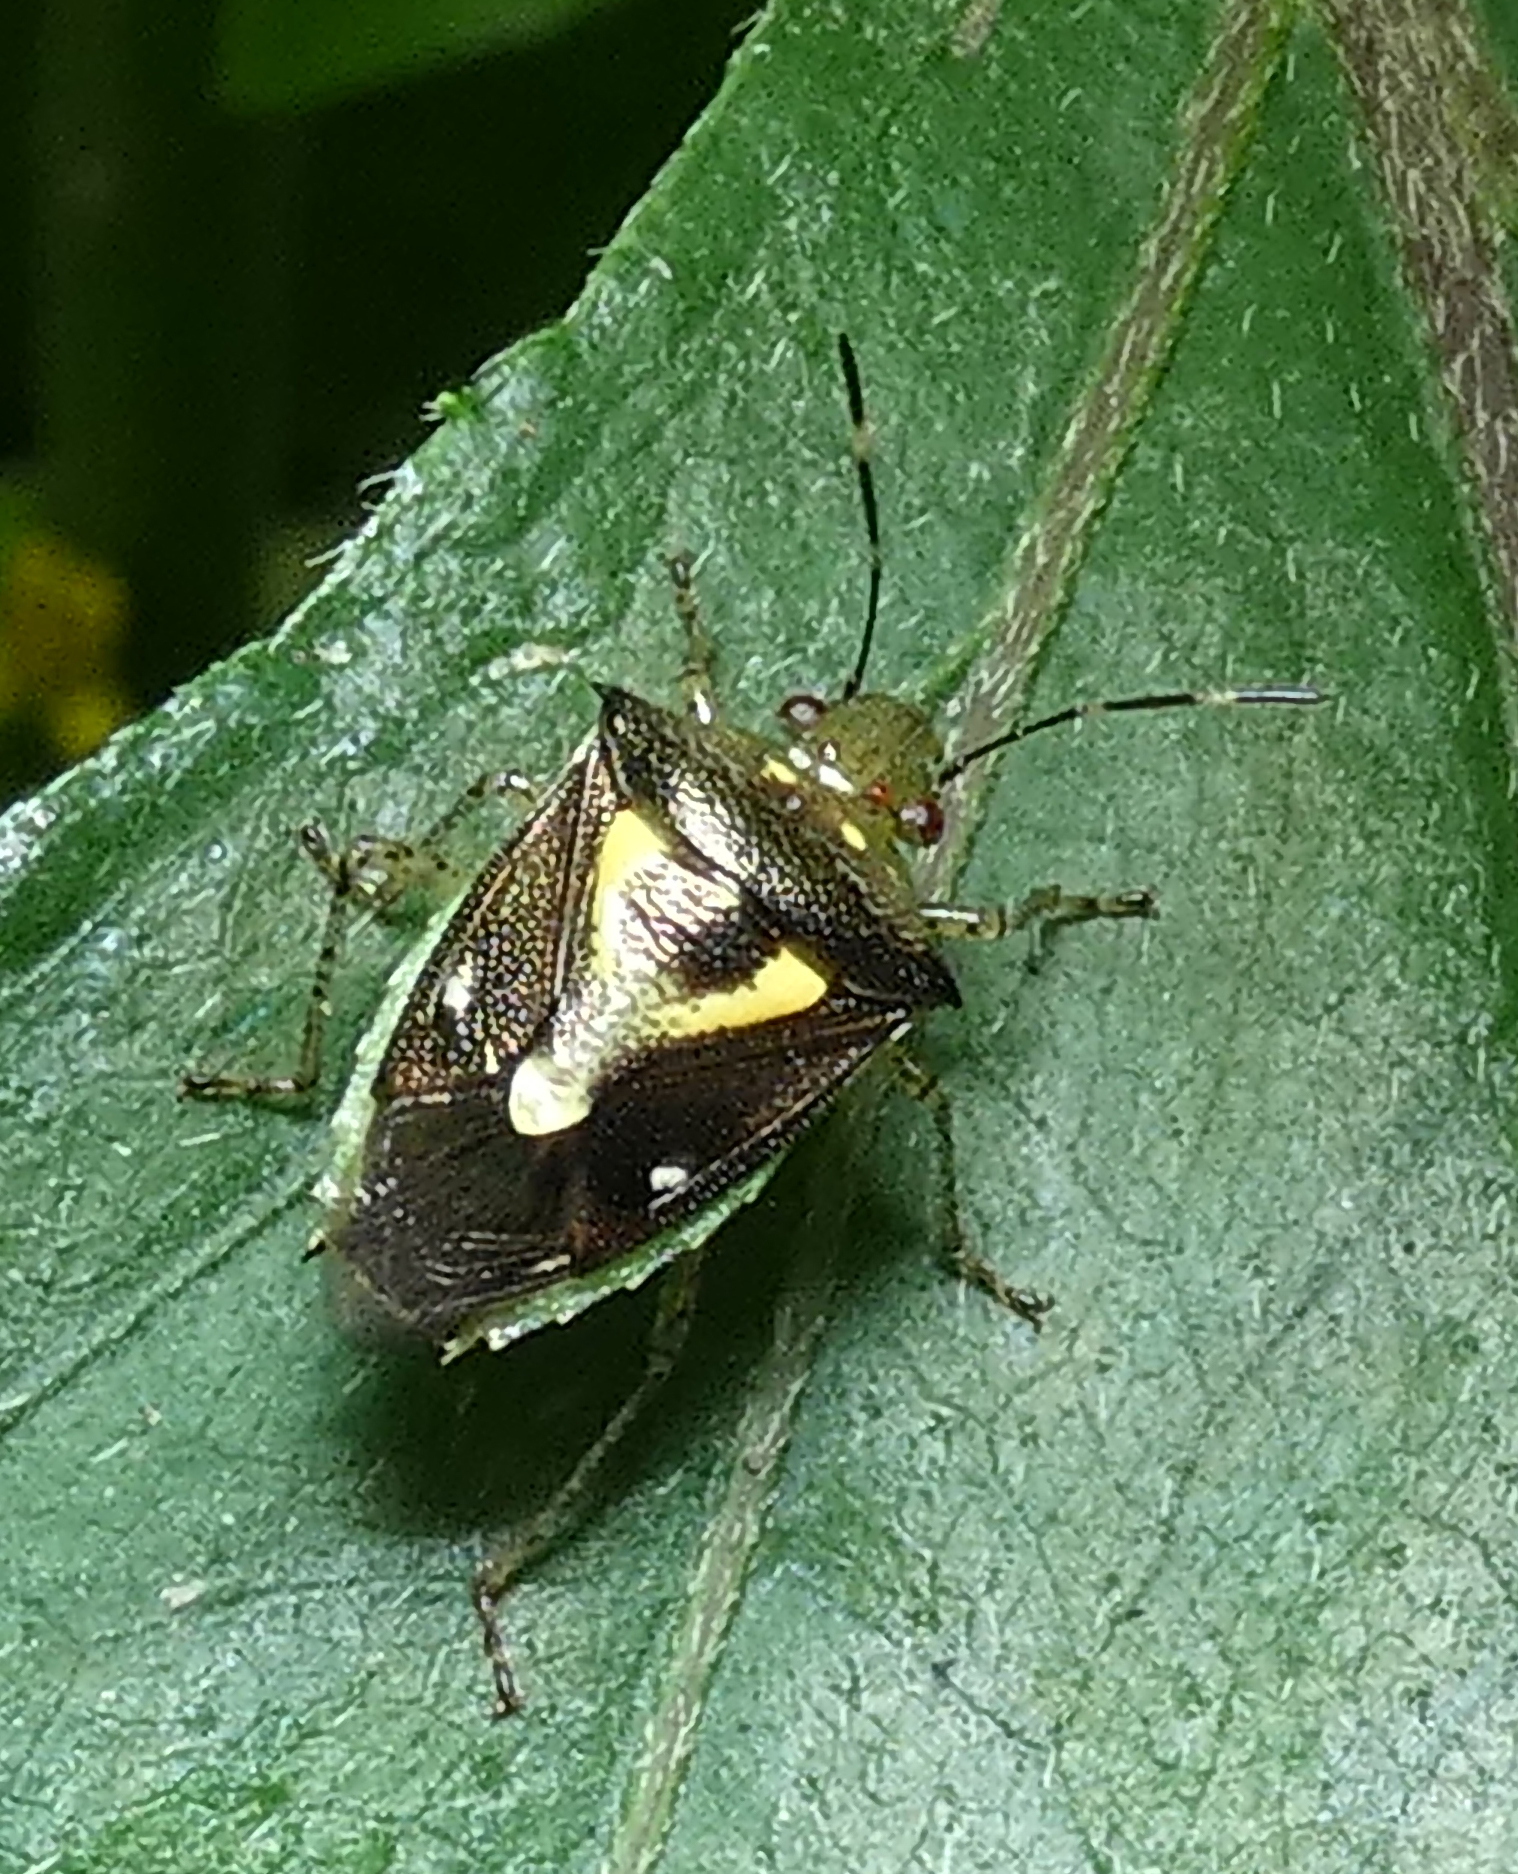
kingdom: Animalia
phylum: Arthropoda
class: Insecta
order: Hemiptera
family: Pentatomidae
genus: Mormidea
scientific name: Mormidea ypsilon
